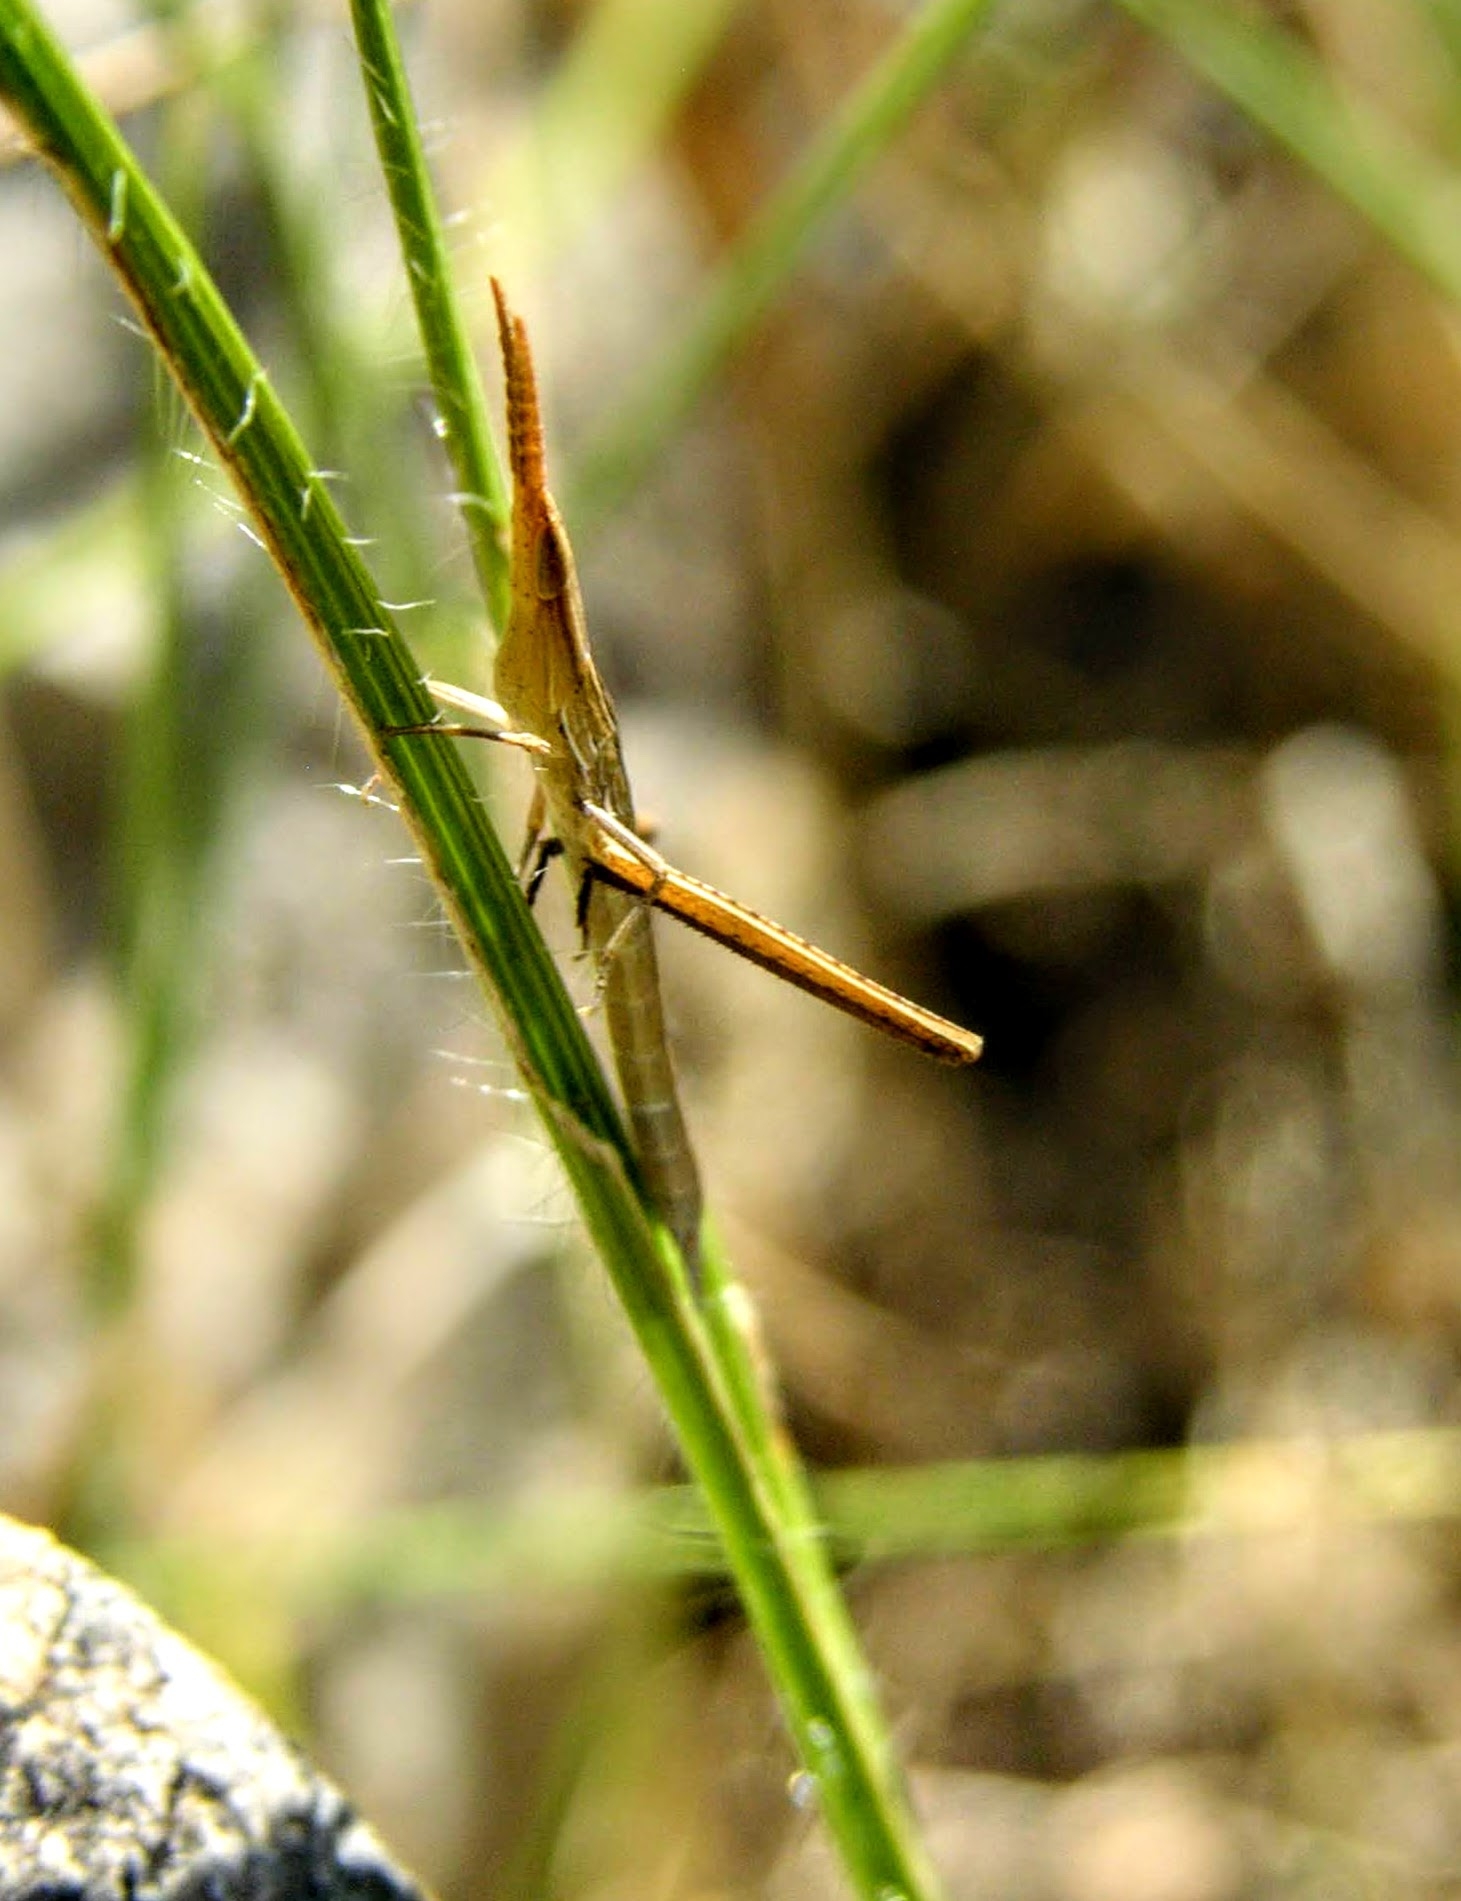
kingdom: Animalia
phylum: Arthropoda
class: Insecta
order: Orthoptera
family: Acrididae
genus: Acrida
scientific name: Acrida ungarica
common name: Common cone-headed grasshopper
